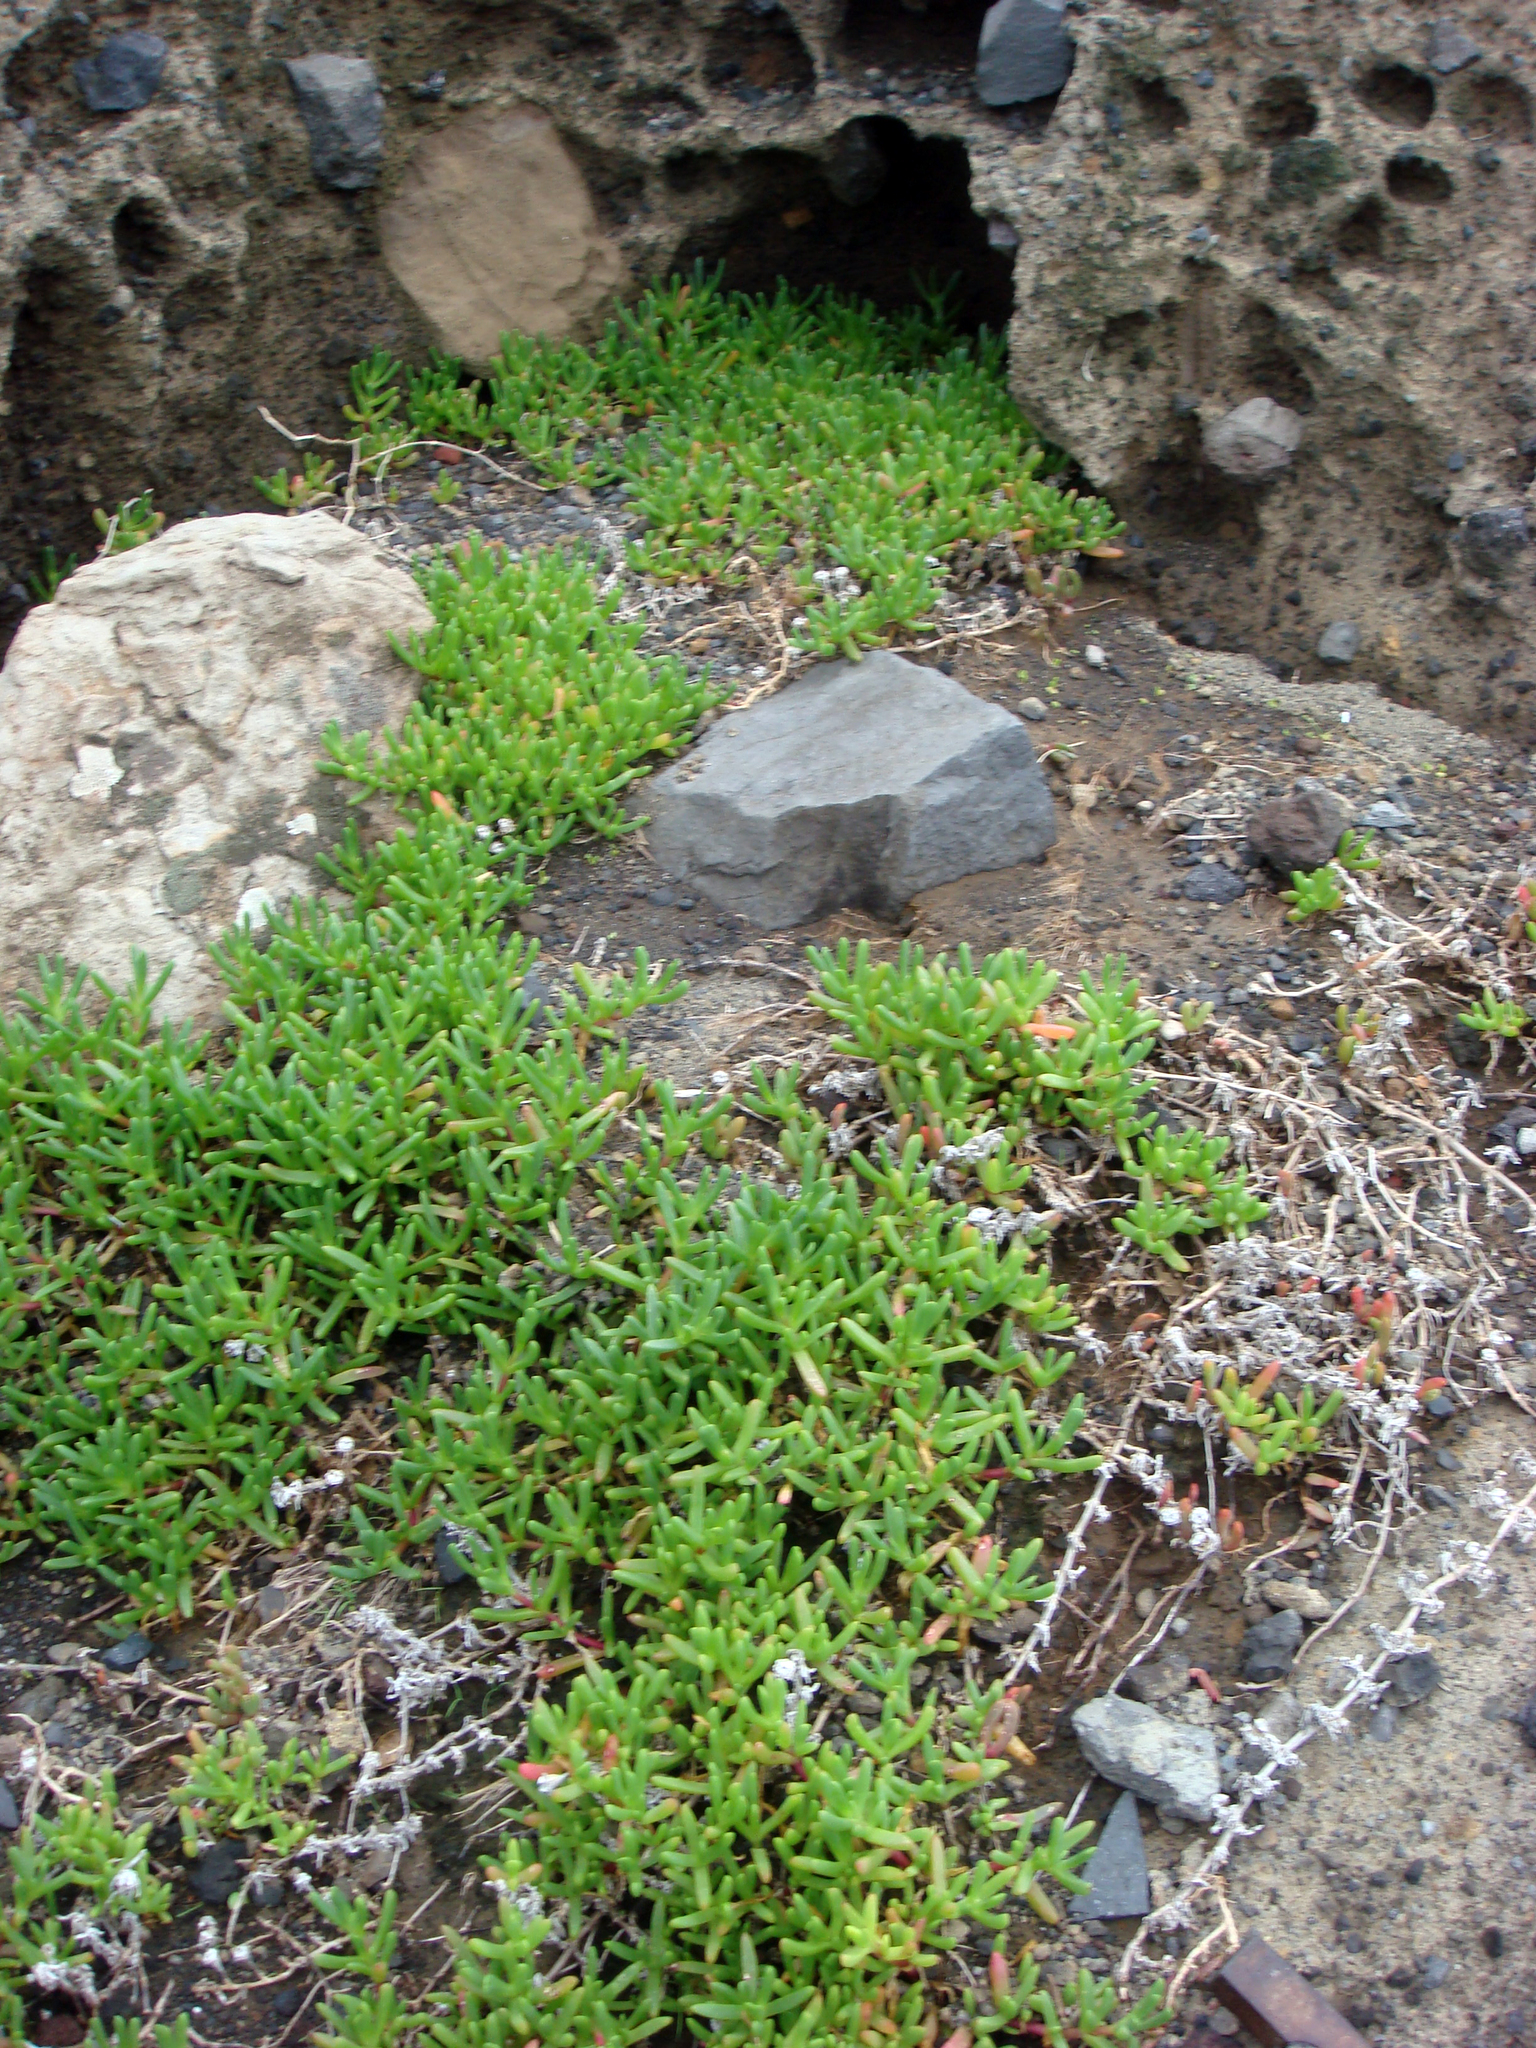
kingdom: Plantae
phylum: Tracheophyta
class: Magnoliopsida
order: Caryophyllales
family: Aizoaceae
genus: Disphyma
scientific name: Disphyma australe
